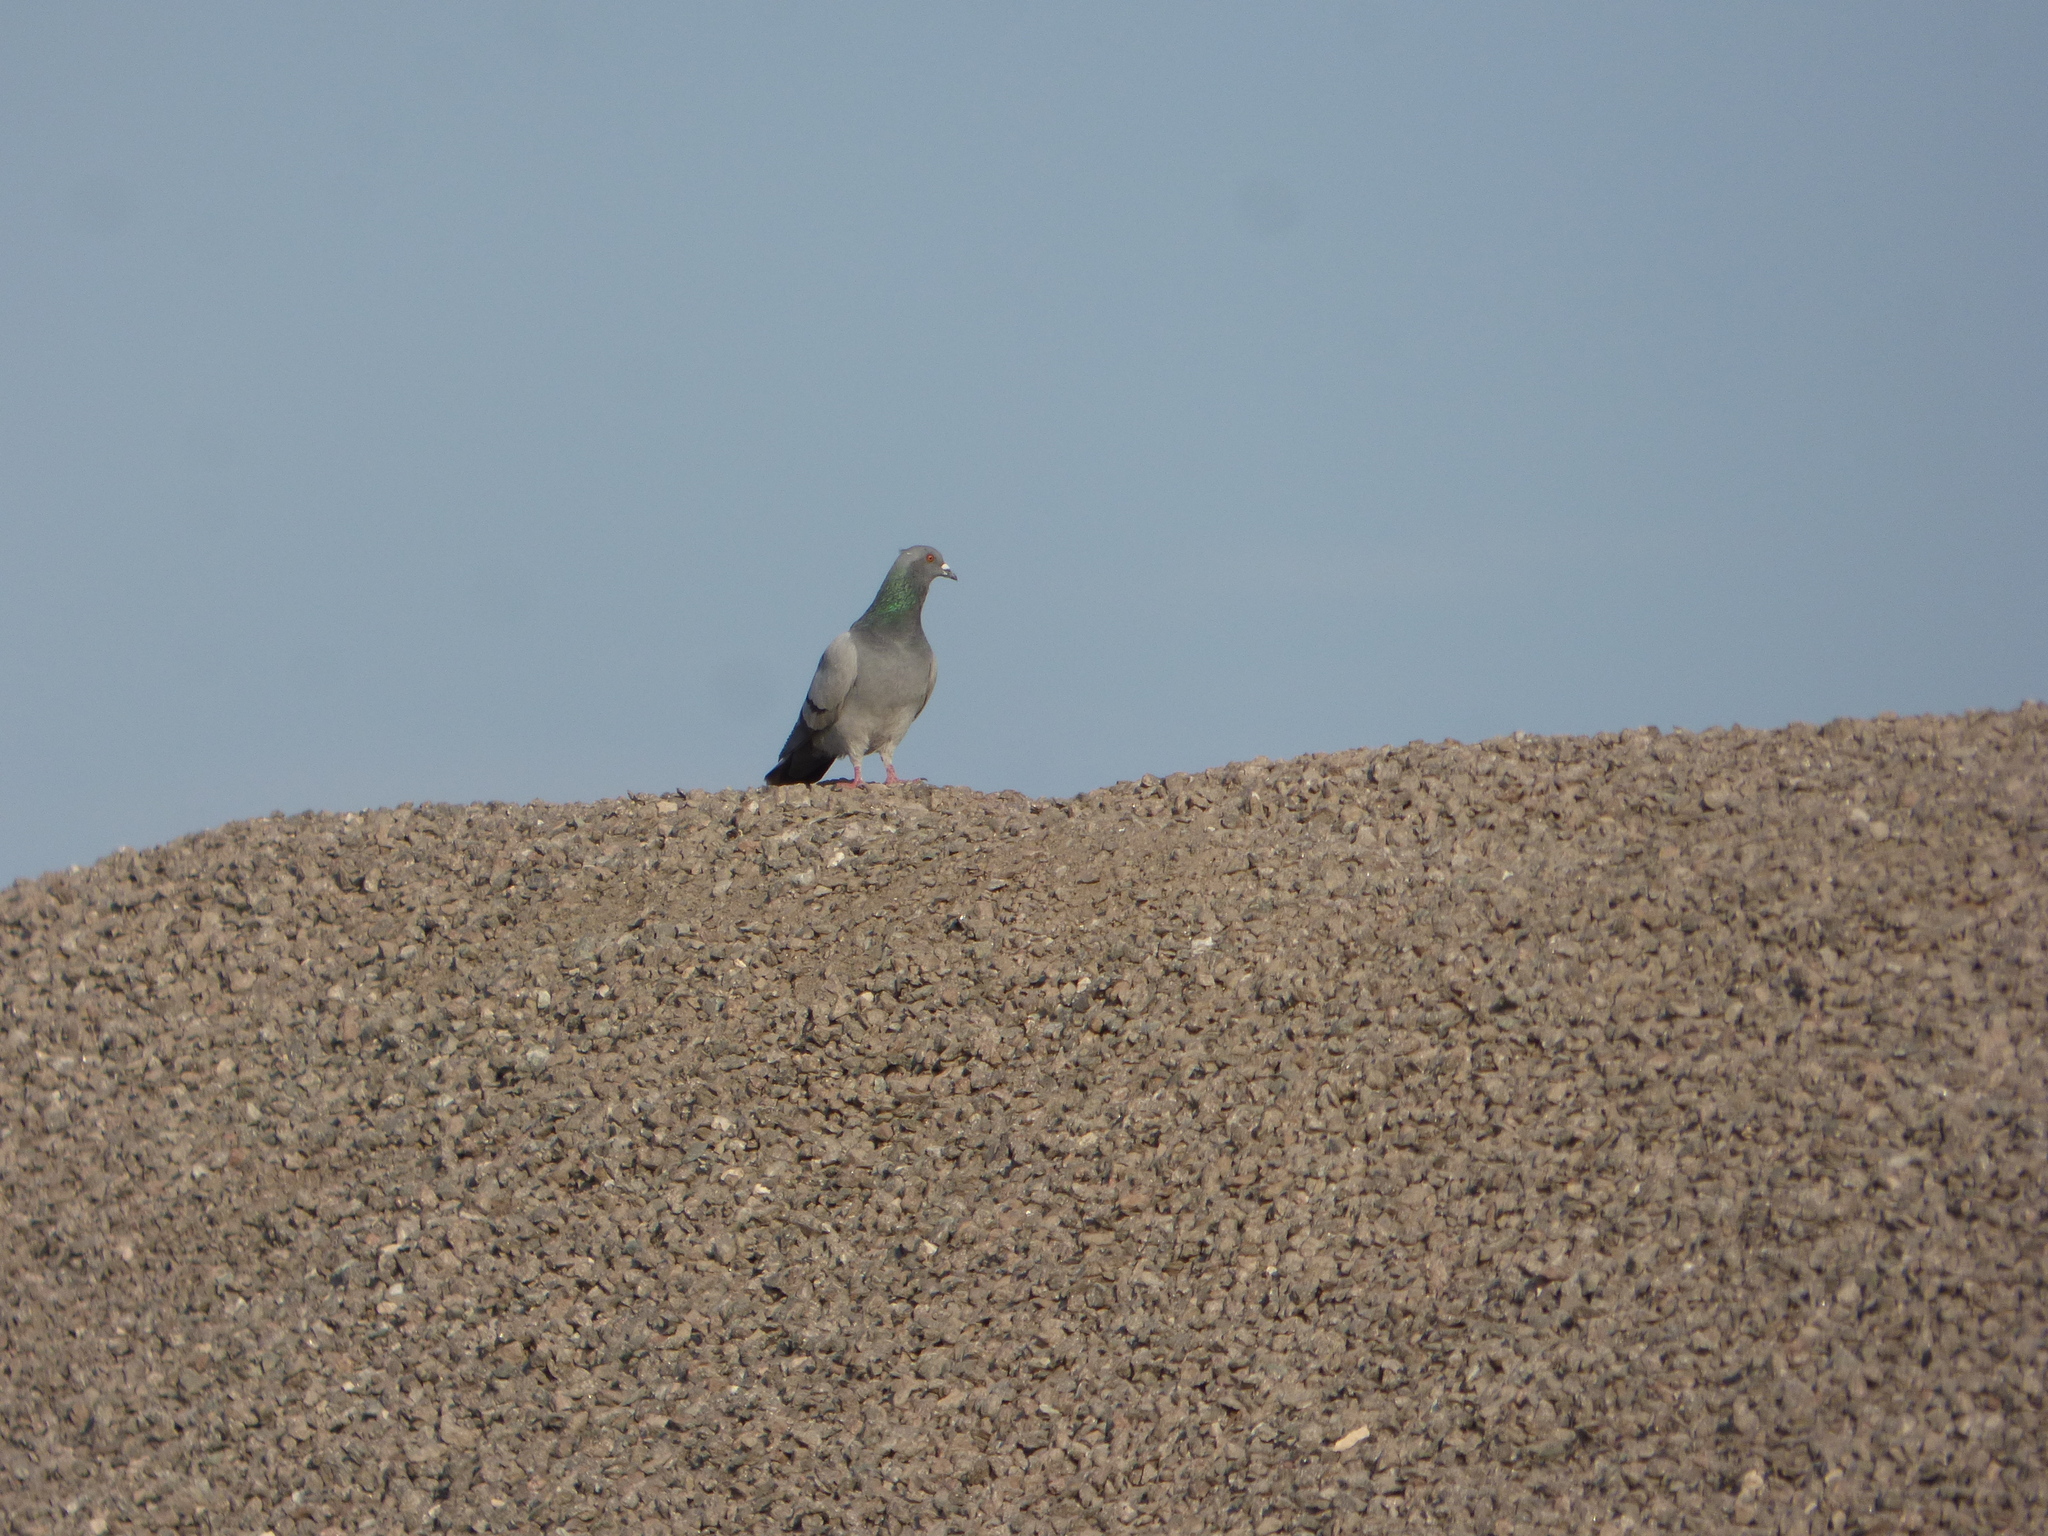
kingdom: Animalia
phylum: Chordata
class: Aves
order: Columbiformes
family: Columbidae
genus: Columba
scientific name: Columba livia
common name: Rock pigeon
